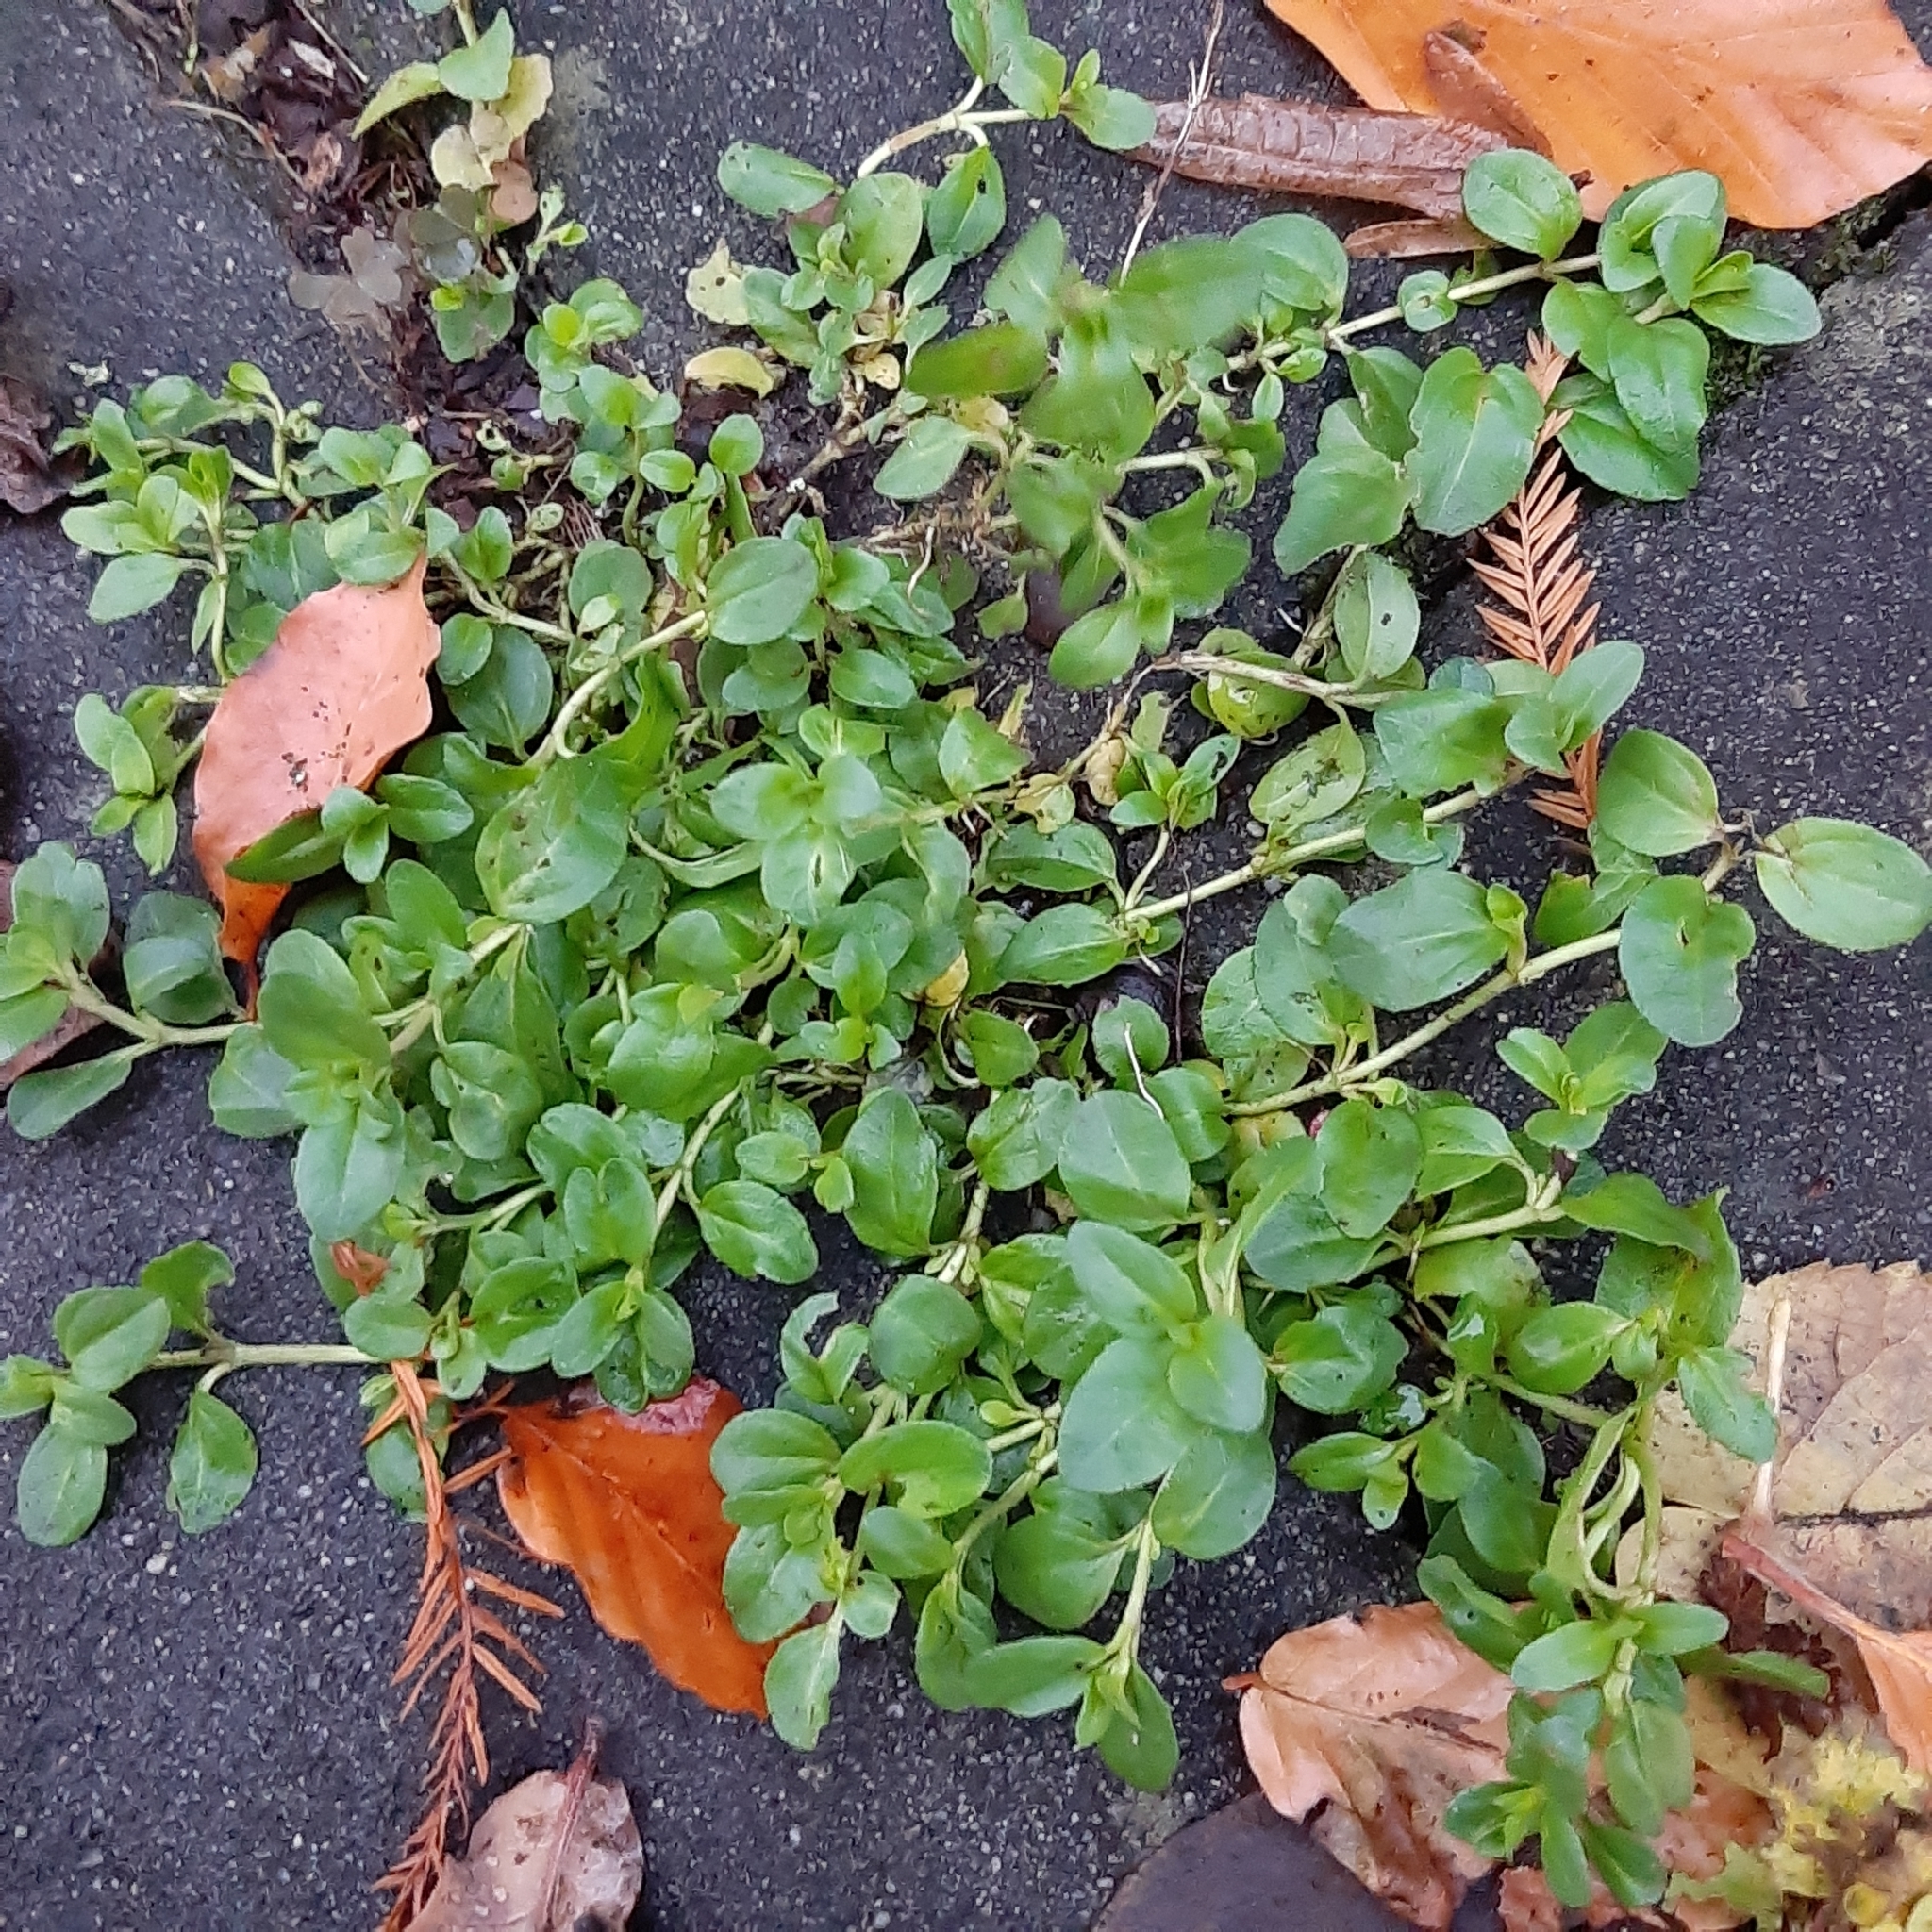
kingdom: Plantae
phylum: Tracheophyta
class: Magnoliopsida
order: Ericales
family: Primulaceae
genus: Lysimachia
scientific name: Lysimachia nummularia
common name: Moneywort
